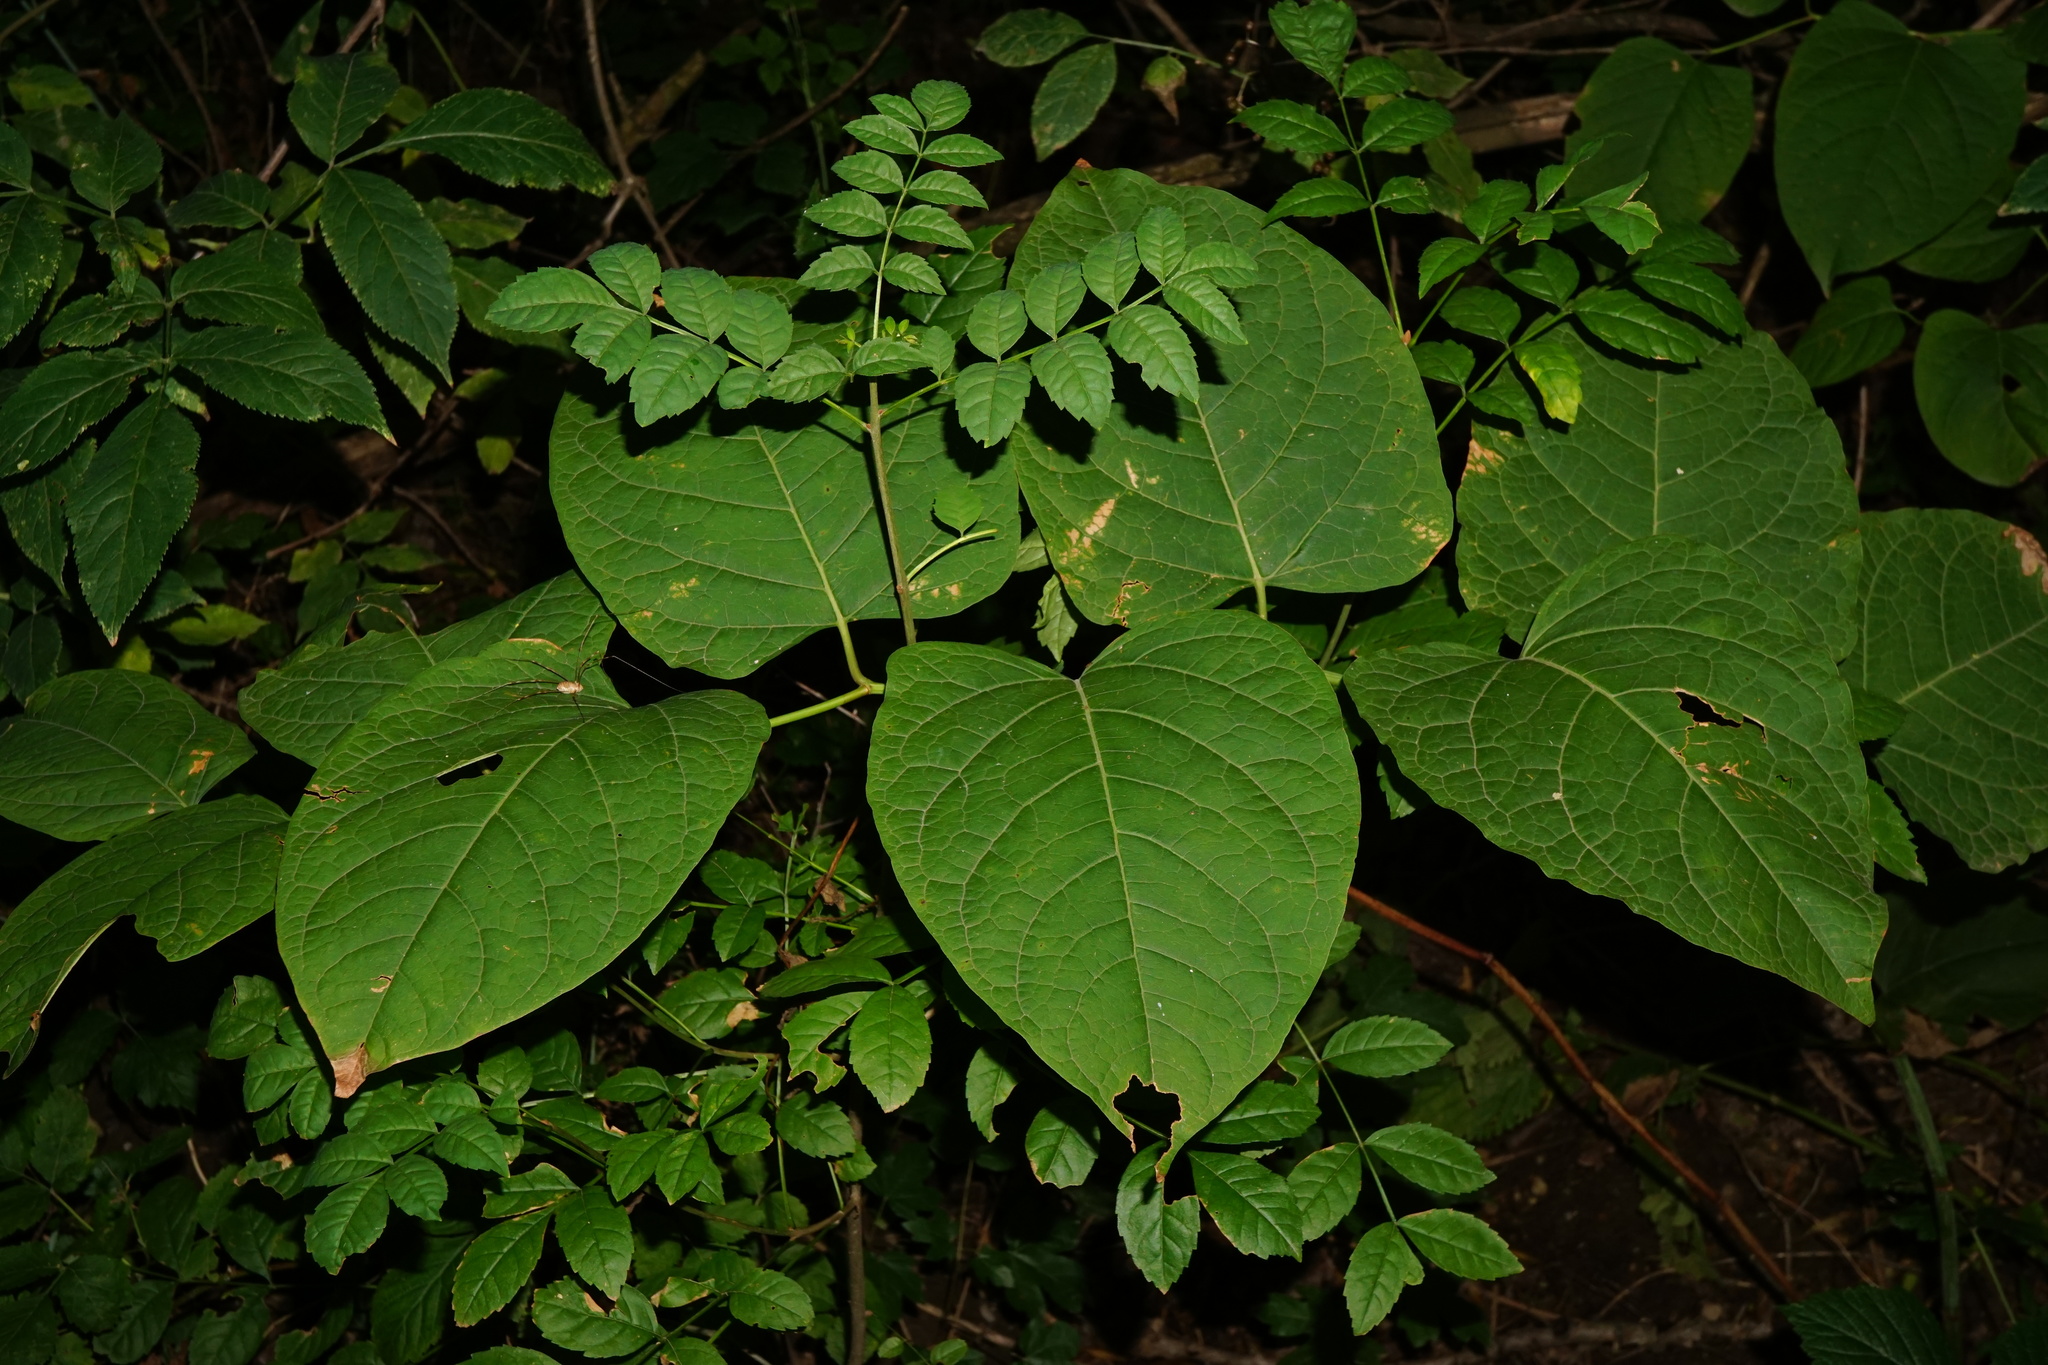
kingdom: Plantae
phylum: Tracheophyta
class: Magnoliopsida
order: Caryophyllales
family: Polygonaceae
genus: Reynoutria
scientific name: Reynoutria bohemica
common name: Bohemian knotweed
